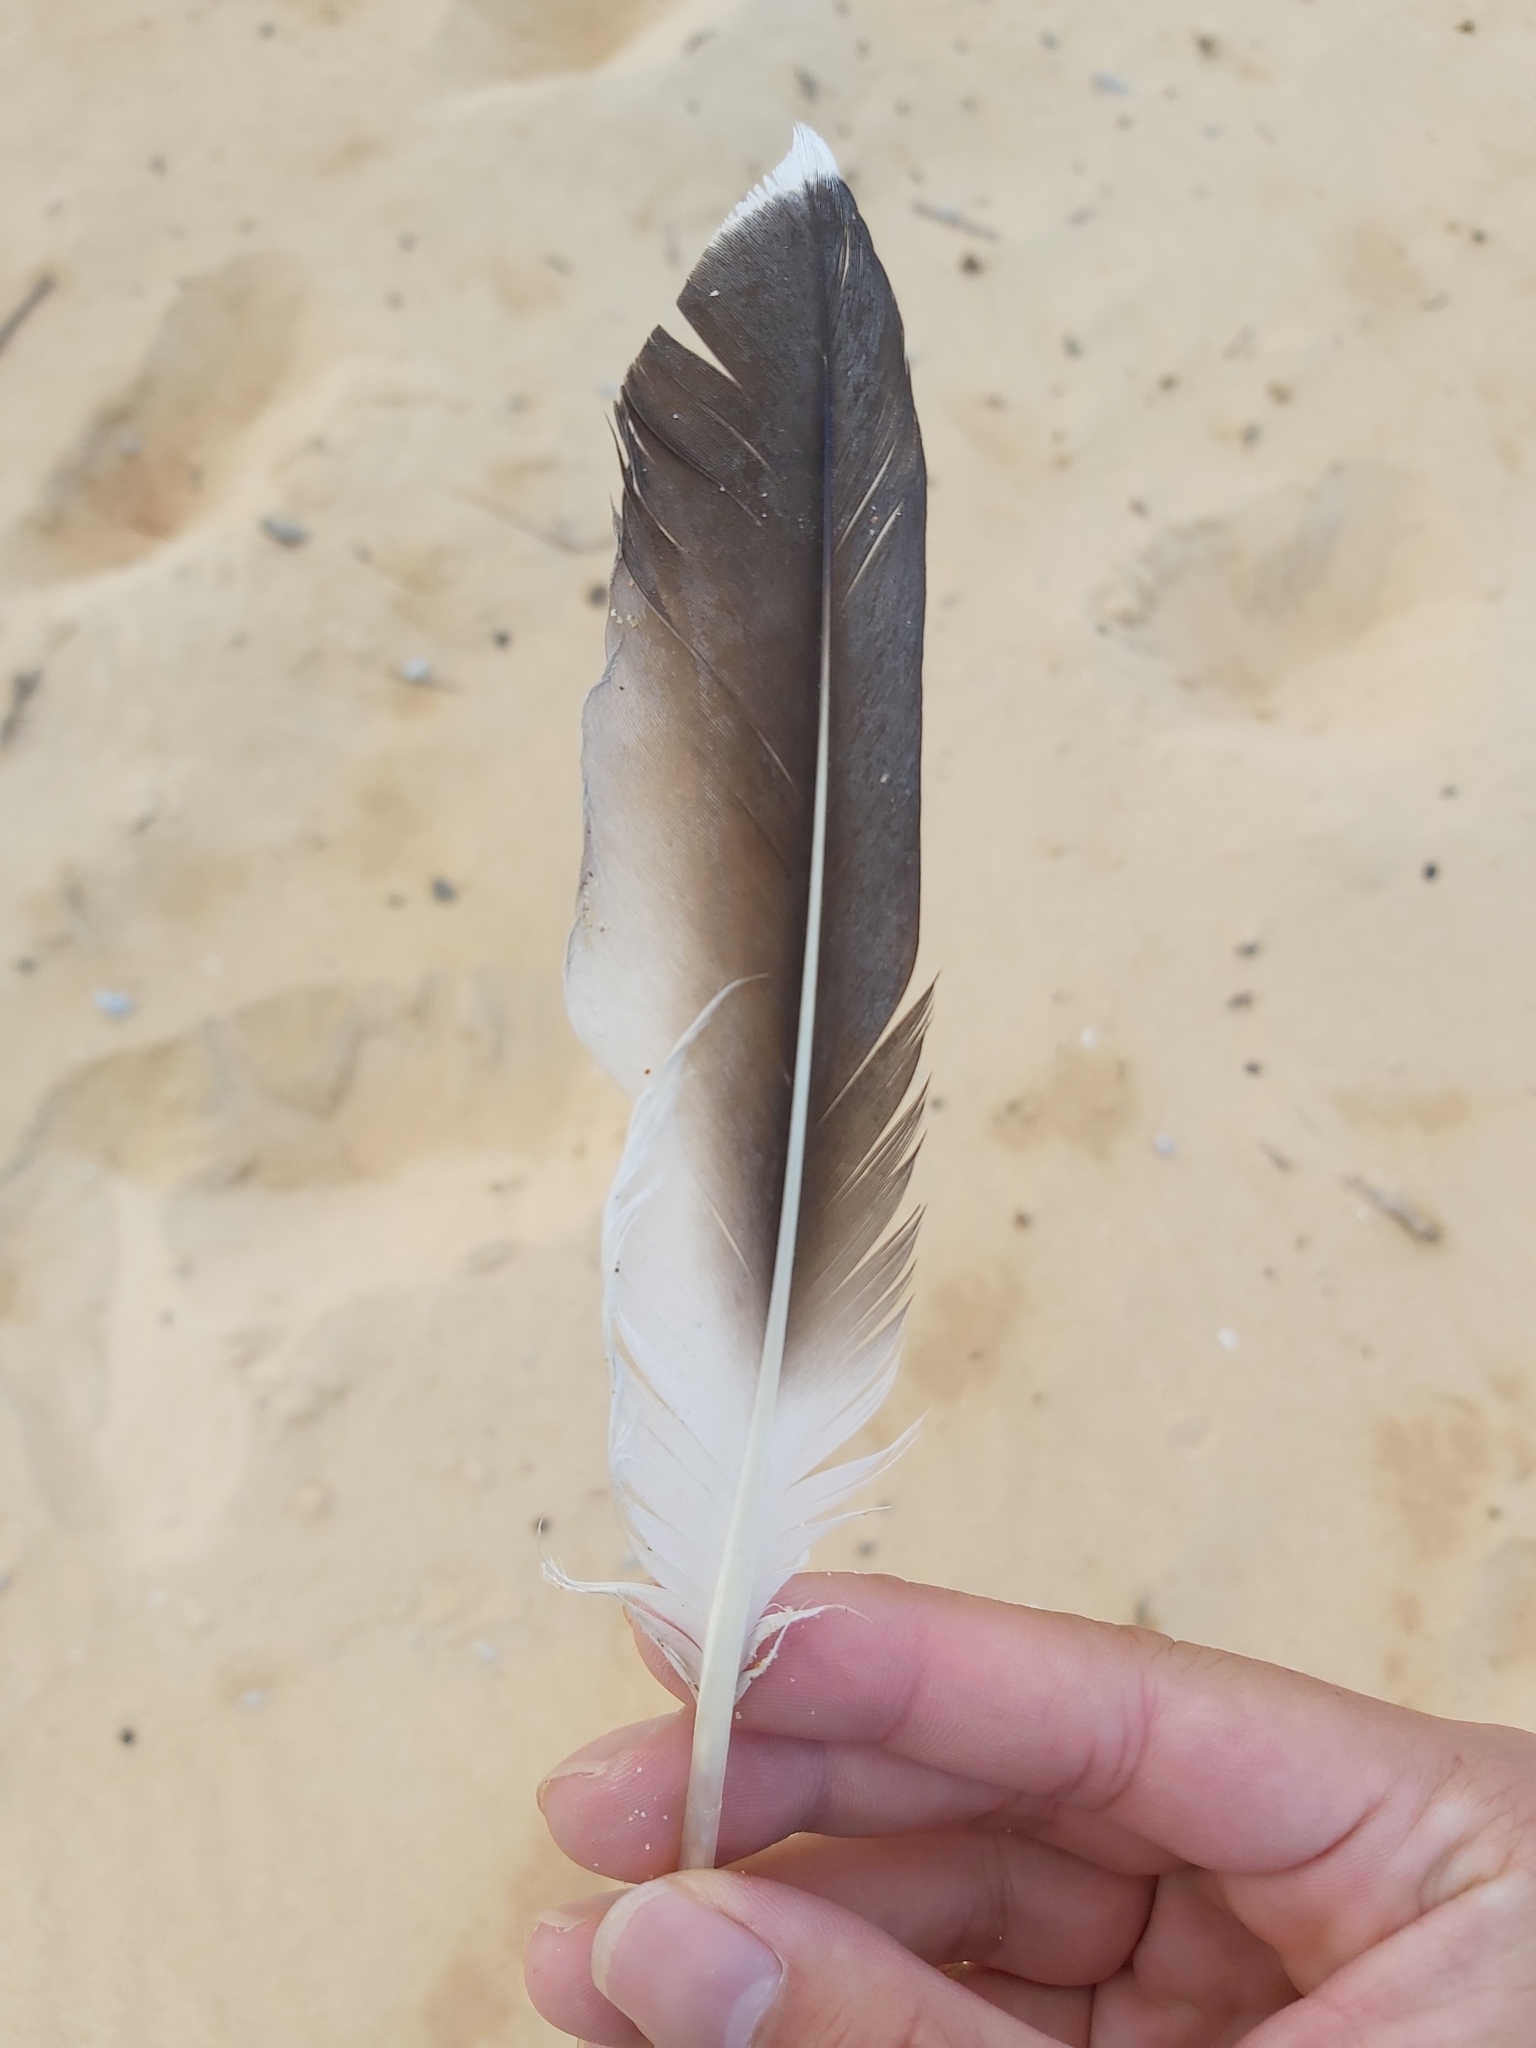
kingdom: Animalia
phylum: Chordata
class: Aves
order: Suliformes
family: Sulidae
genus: Morus
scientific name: Morus serrator
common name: Australasian gannet
